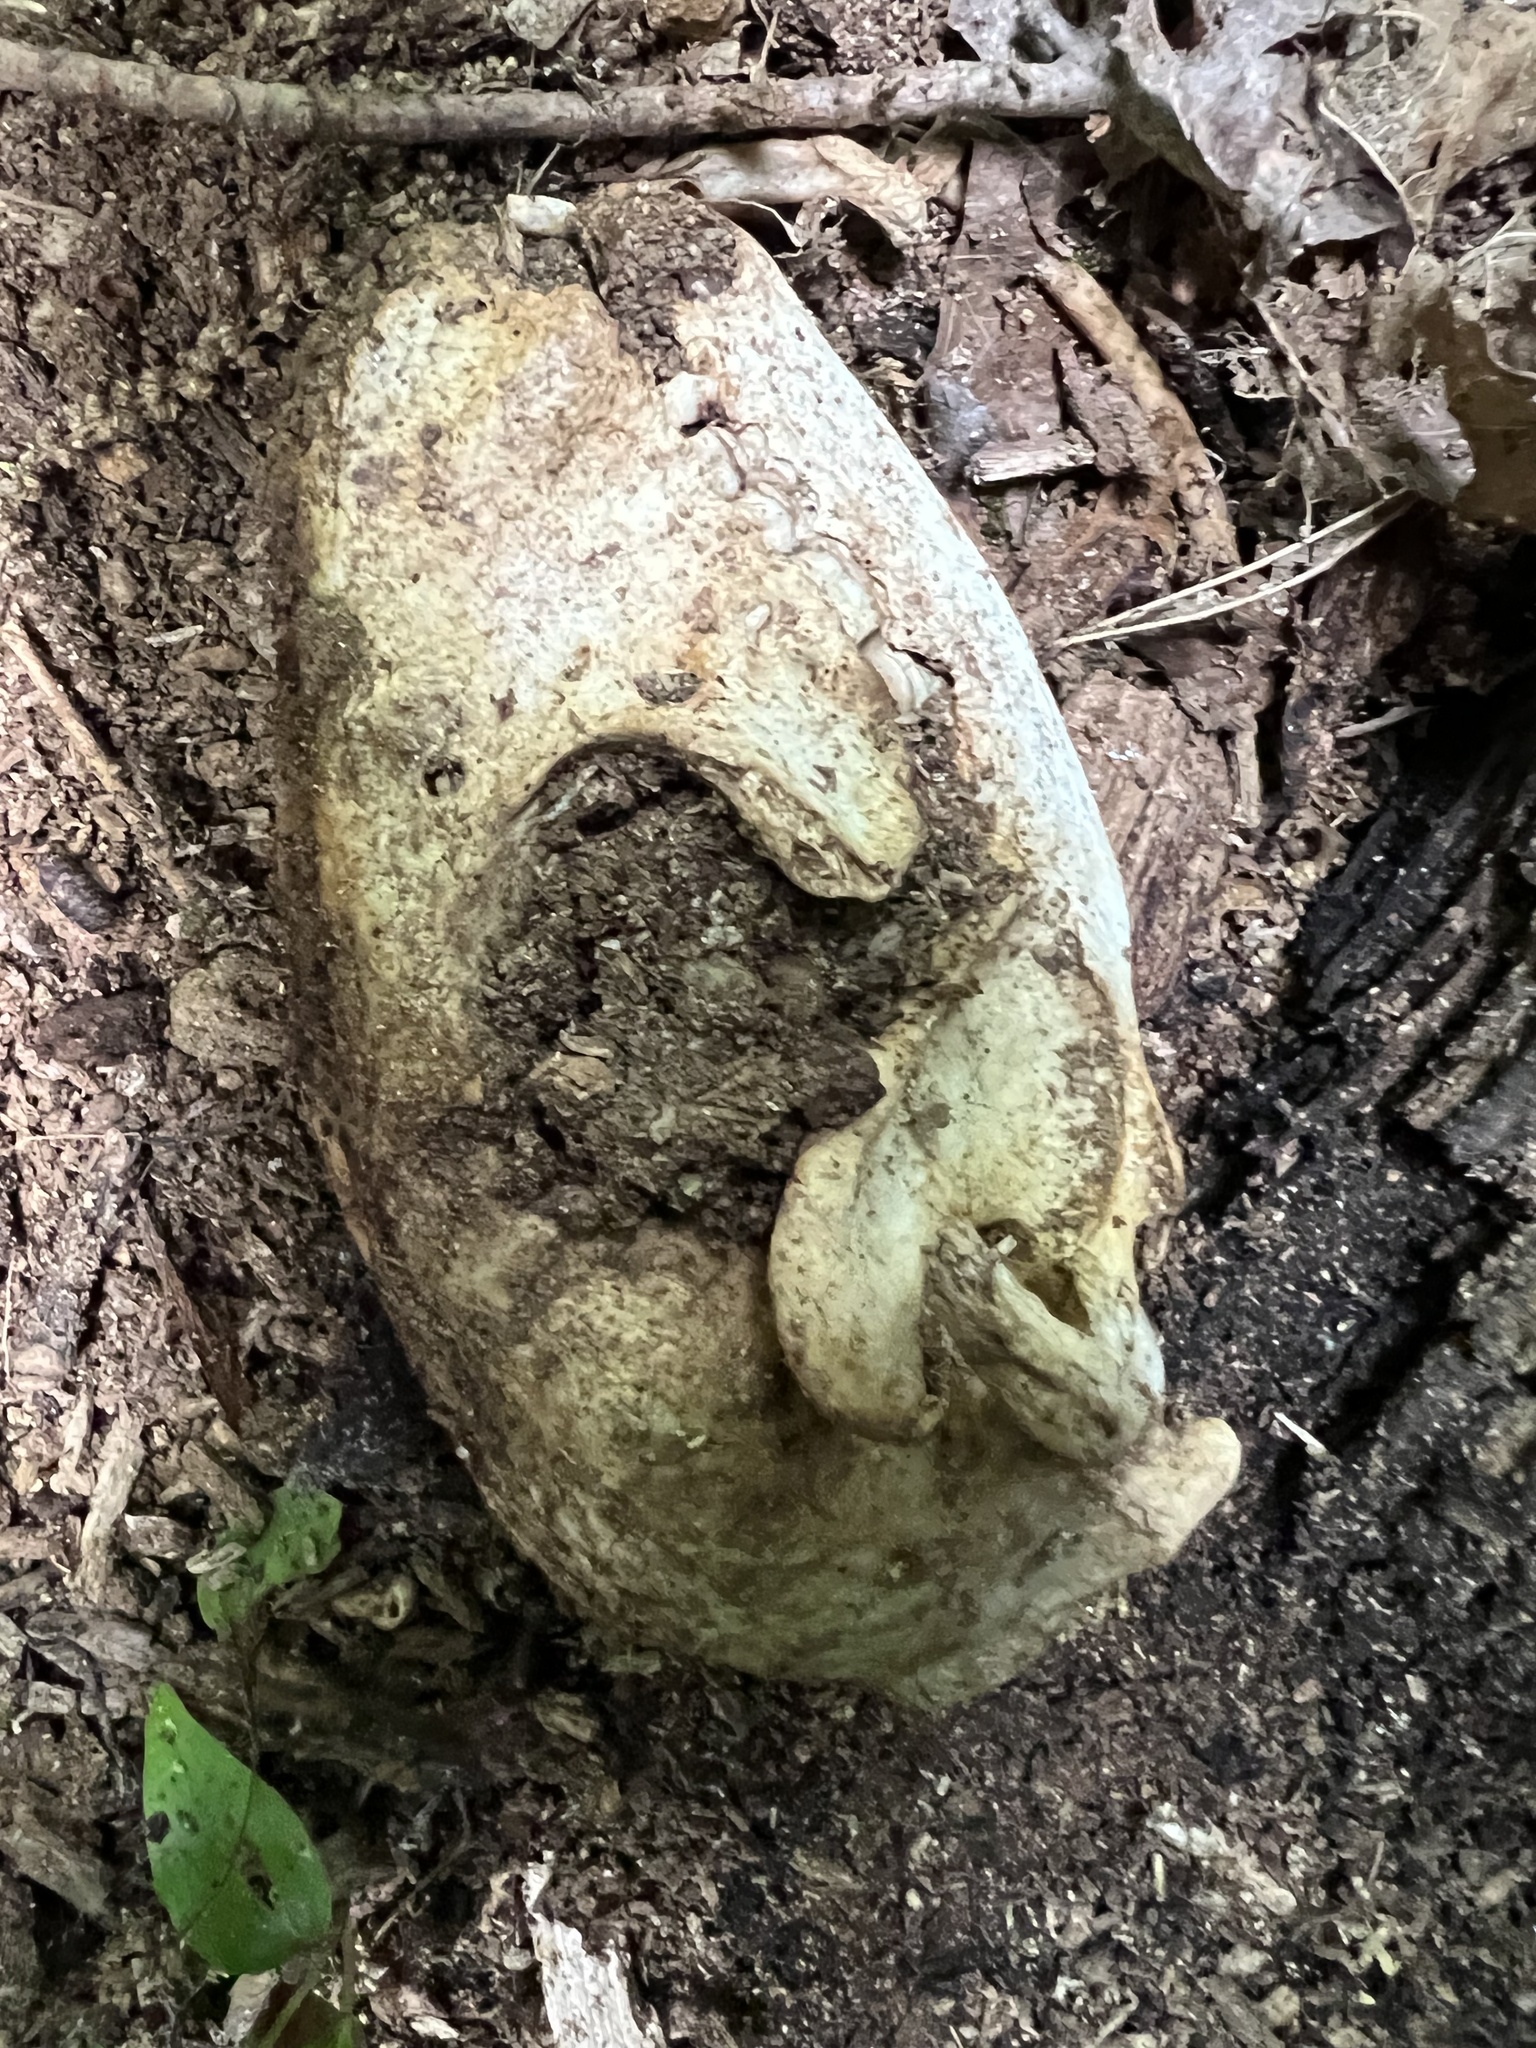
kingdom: Animalia
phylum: Chordata
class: Mammalia
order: Carnivora
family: Procyonidae
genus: Procyon
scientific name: Procyon lotor
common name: Raccoon
